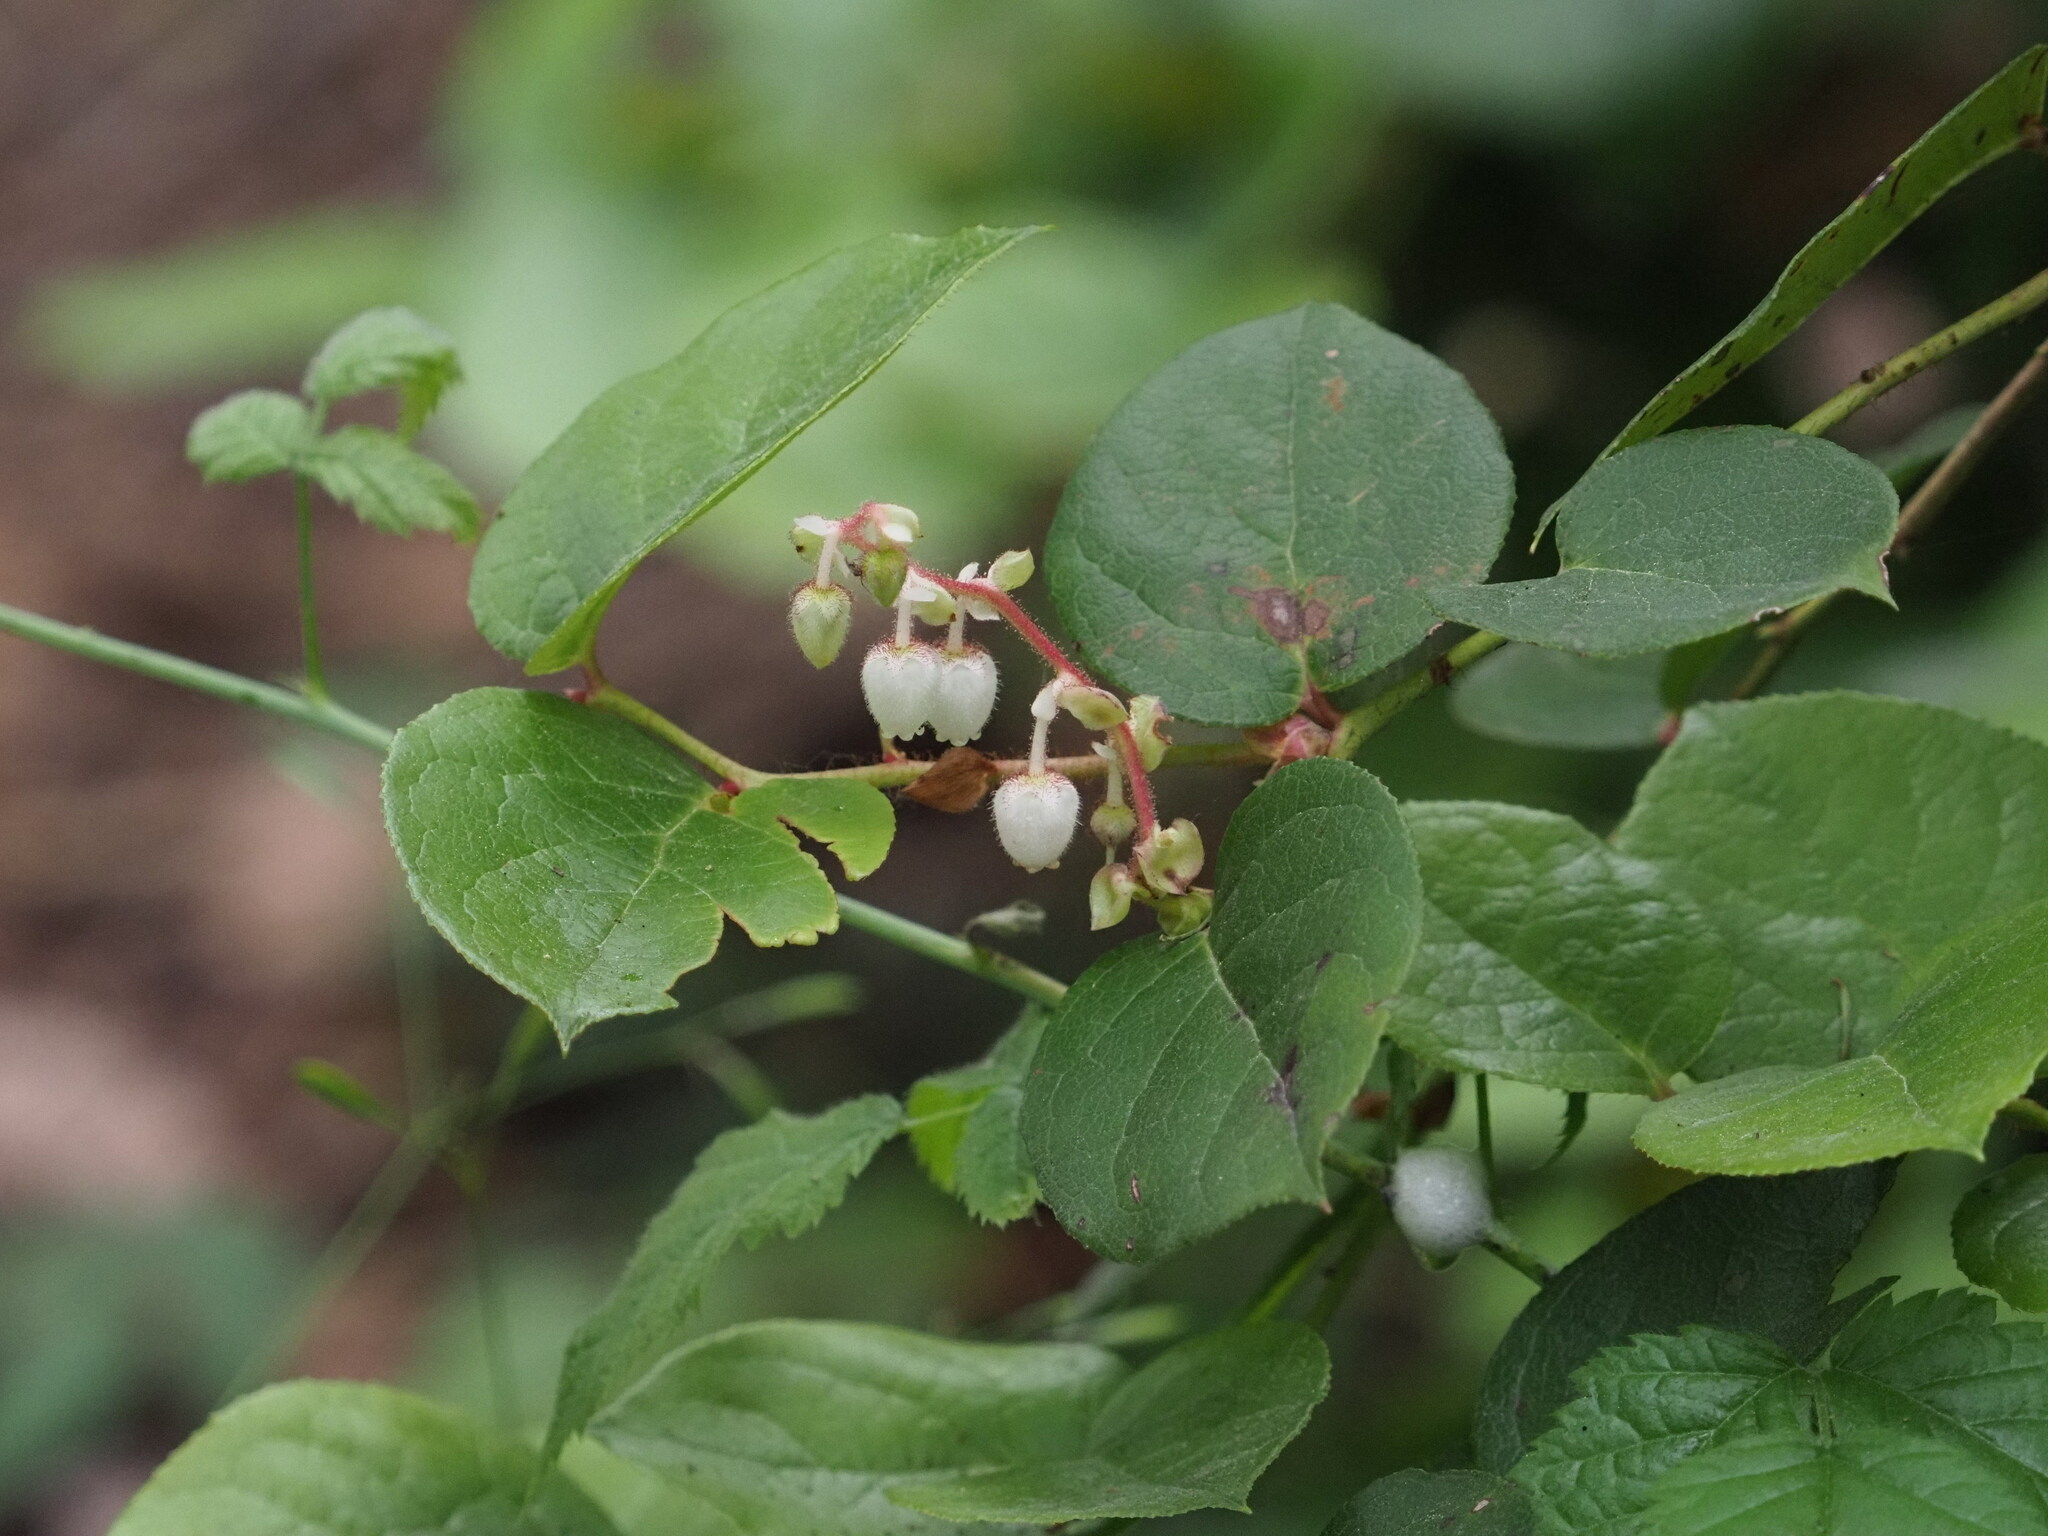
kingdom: Plantae
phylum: Tracheophyta
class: Magnoliopsida
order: Ericales
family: Ericaceae
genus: Gaultheria
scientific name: Gaultheria shallon
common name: Shallon
